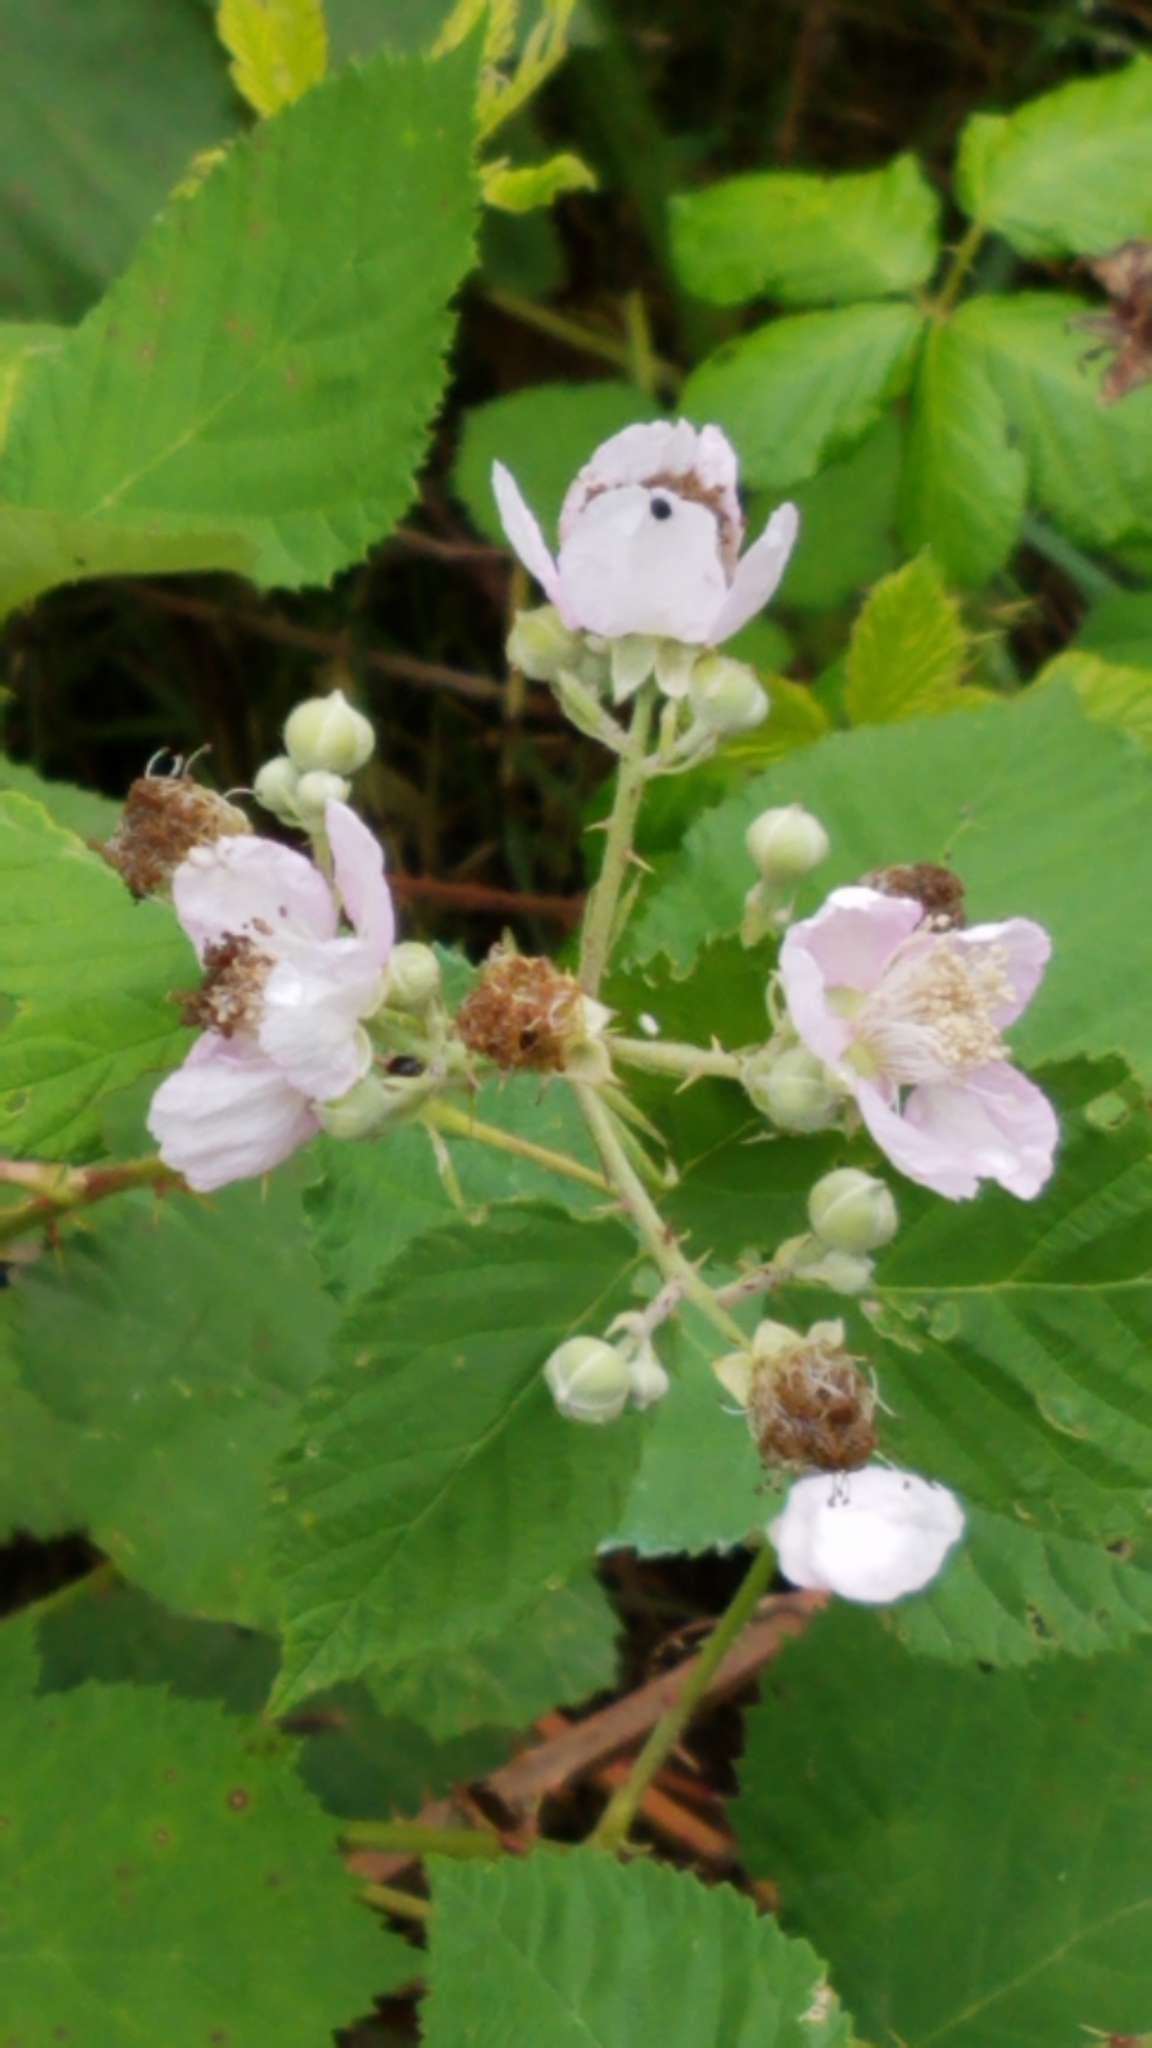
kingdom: Plantae
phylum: Tracheophyta
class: Magnoliopsida
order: Rosales
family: Rosaceae
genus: Rubus
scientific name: Rubus armeniacus
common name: Himalayan blackberry
